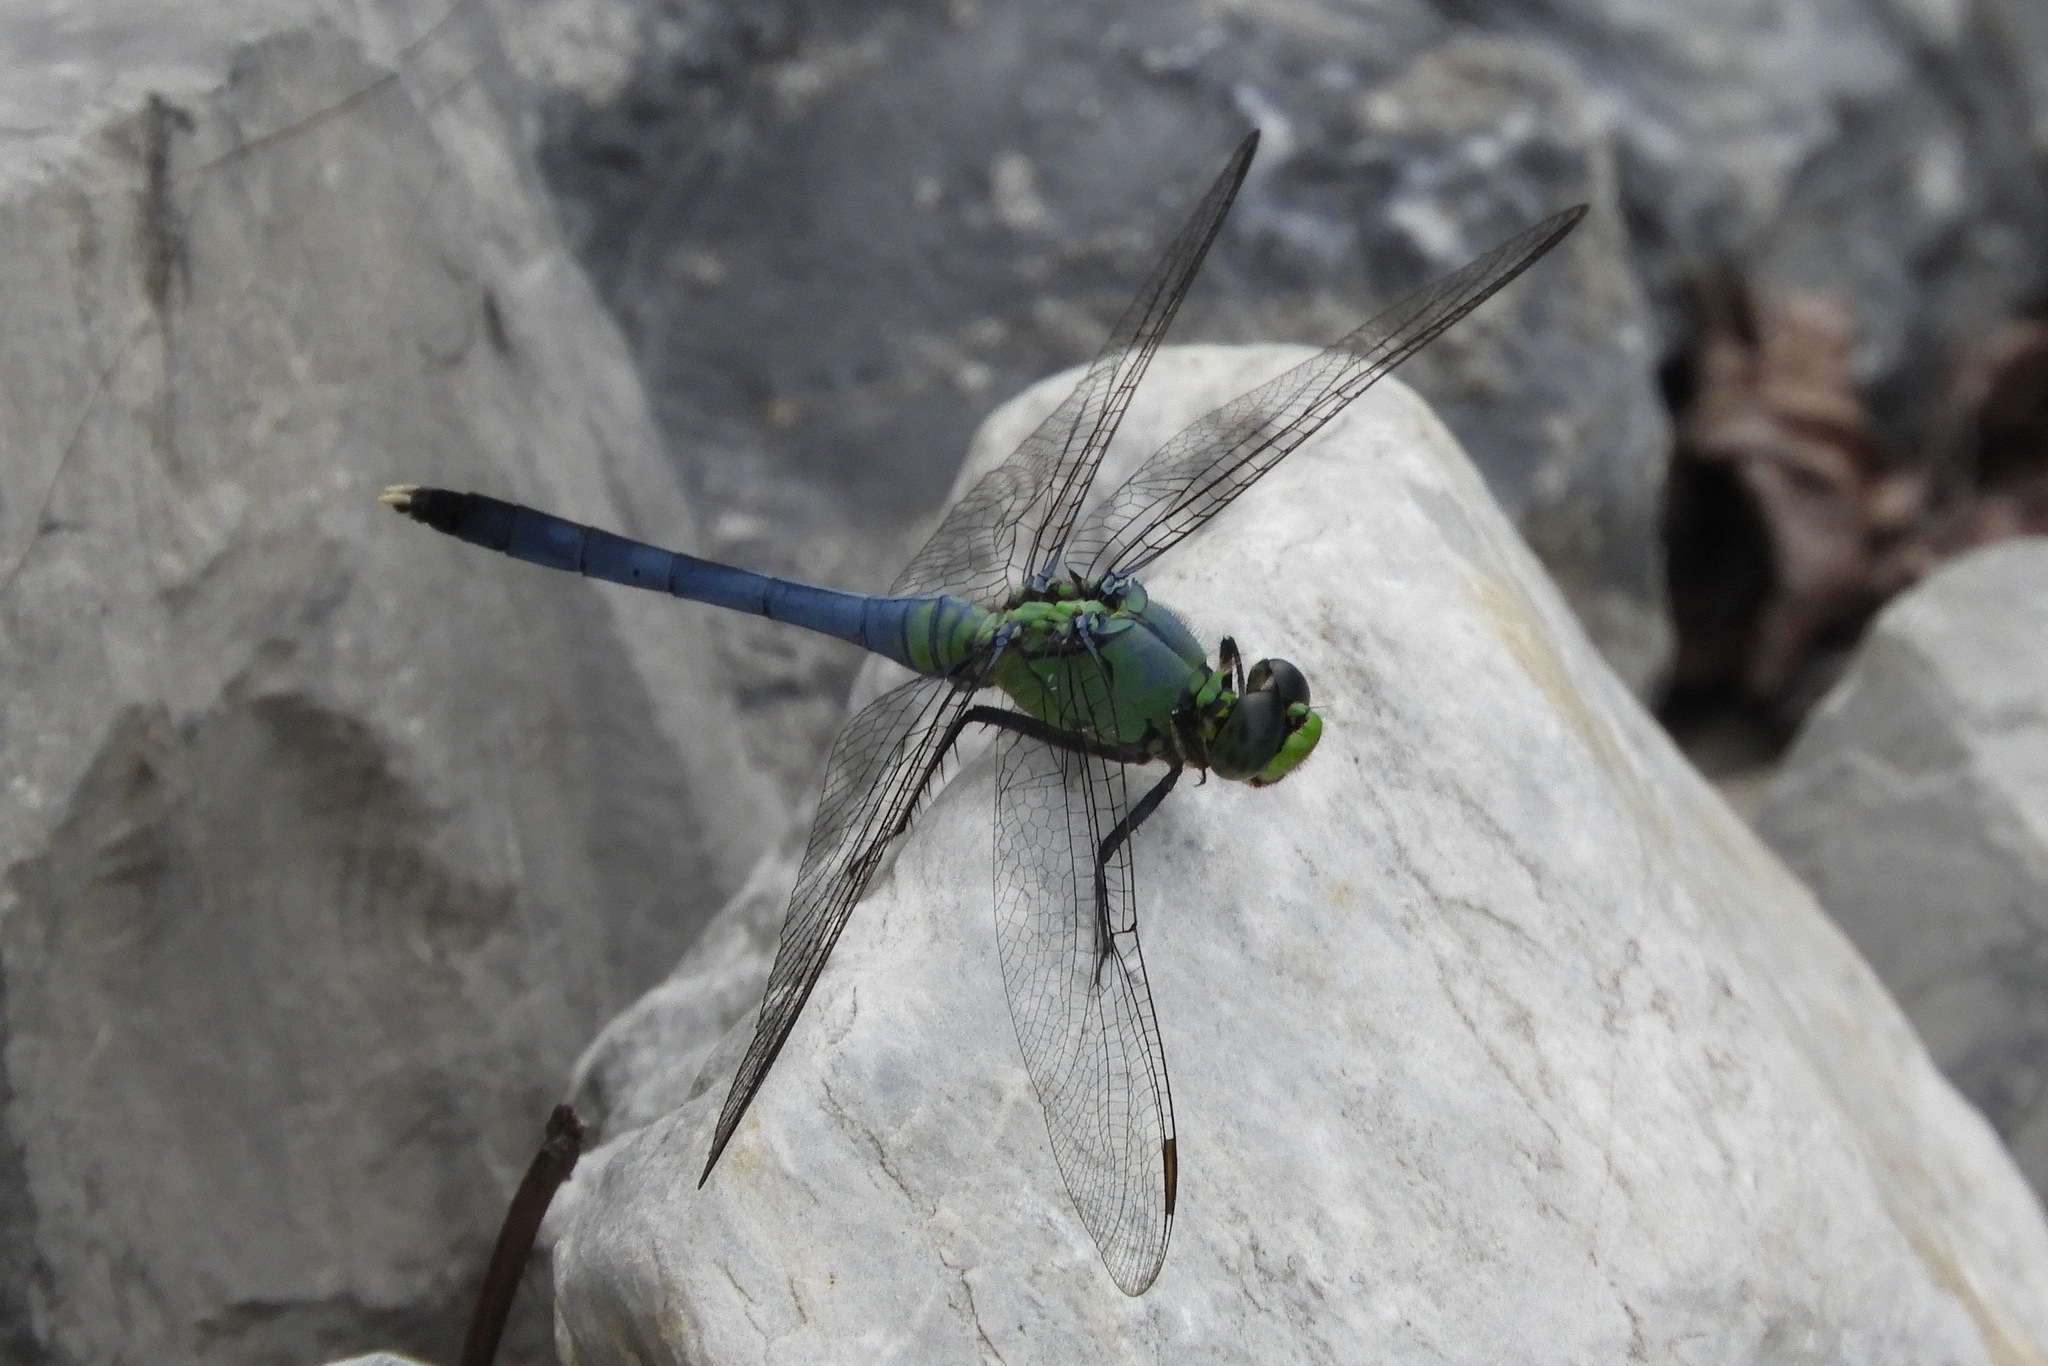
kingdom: Animalia
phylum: Arthropoda
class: Insecta
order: Odonata
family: Libellulidae
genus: Erythemis
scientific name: Erythemis simplicicollis
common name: Eastern pondhawk
